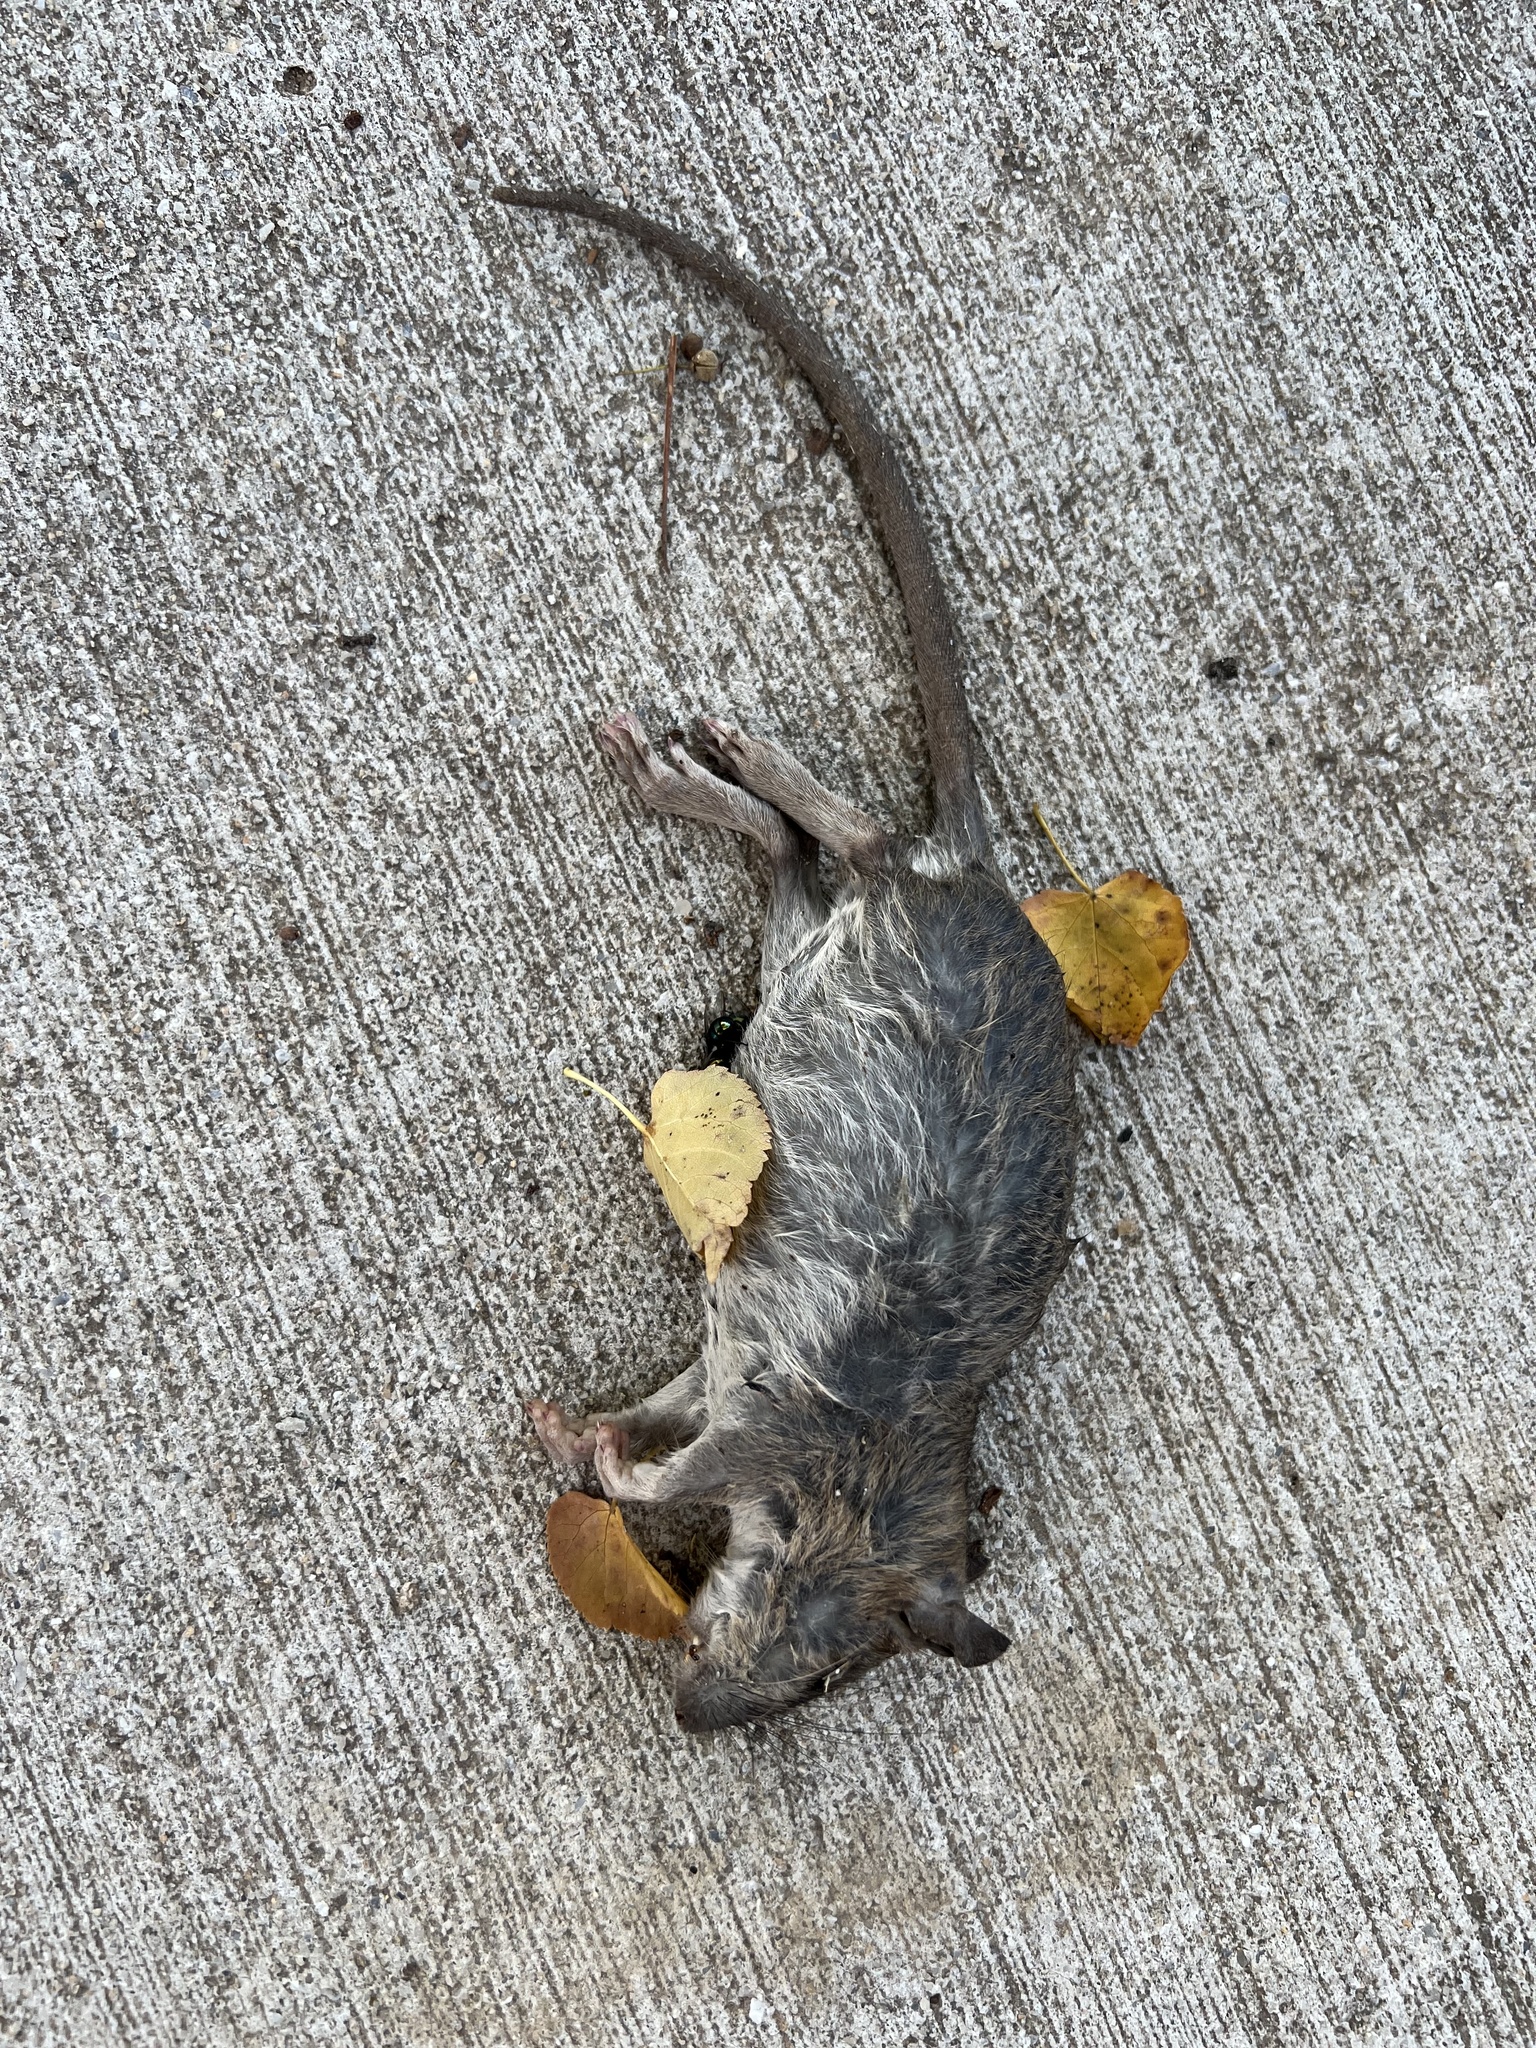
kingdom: Animalia
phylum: Chordata
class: Mammalia
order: Rodentia
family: Muridae
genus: Rattus
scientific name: Rattus norvegicus
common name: Brown rat
